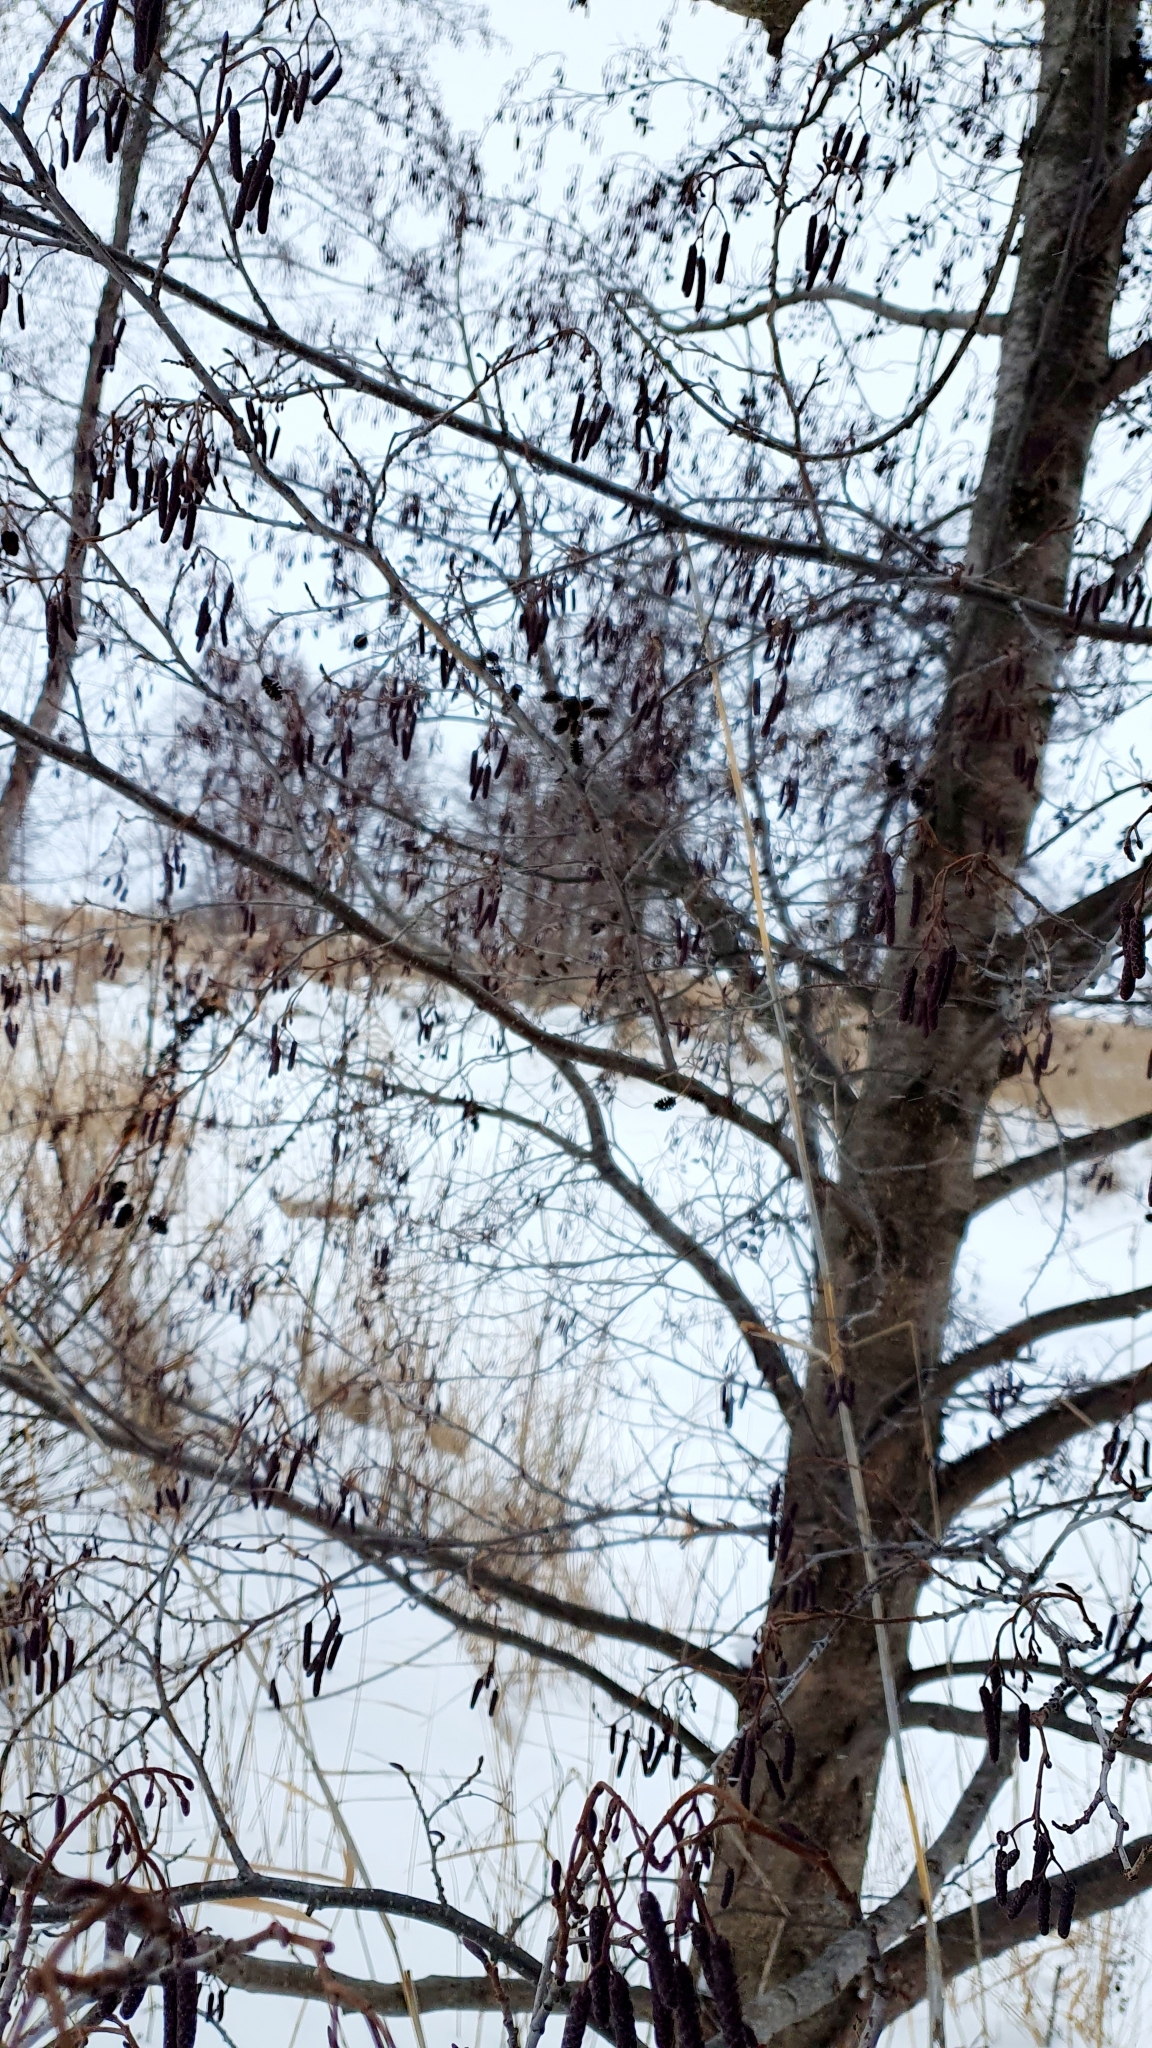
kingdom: Plantae
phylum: Tracheophyta
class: Magnoliopsida
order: Fagales
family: Betulaceae
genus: Alnus
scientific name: Alnus glutinosa
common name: Black alder
